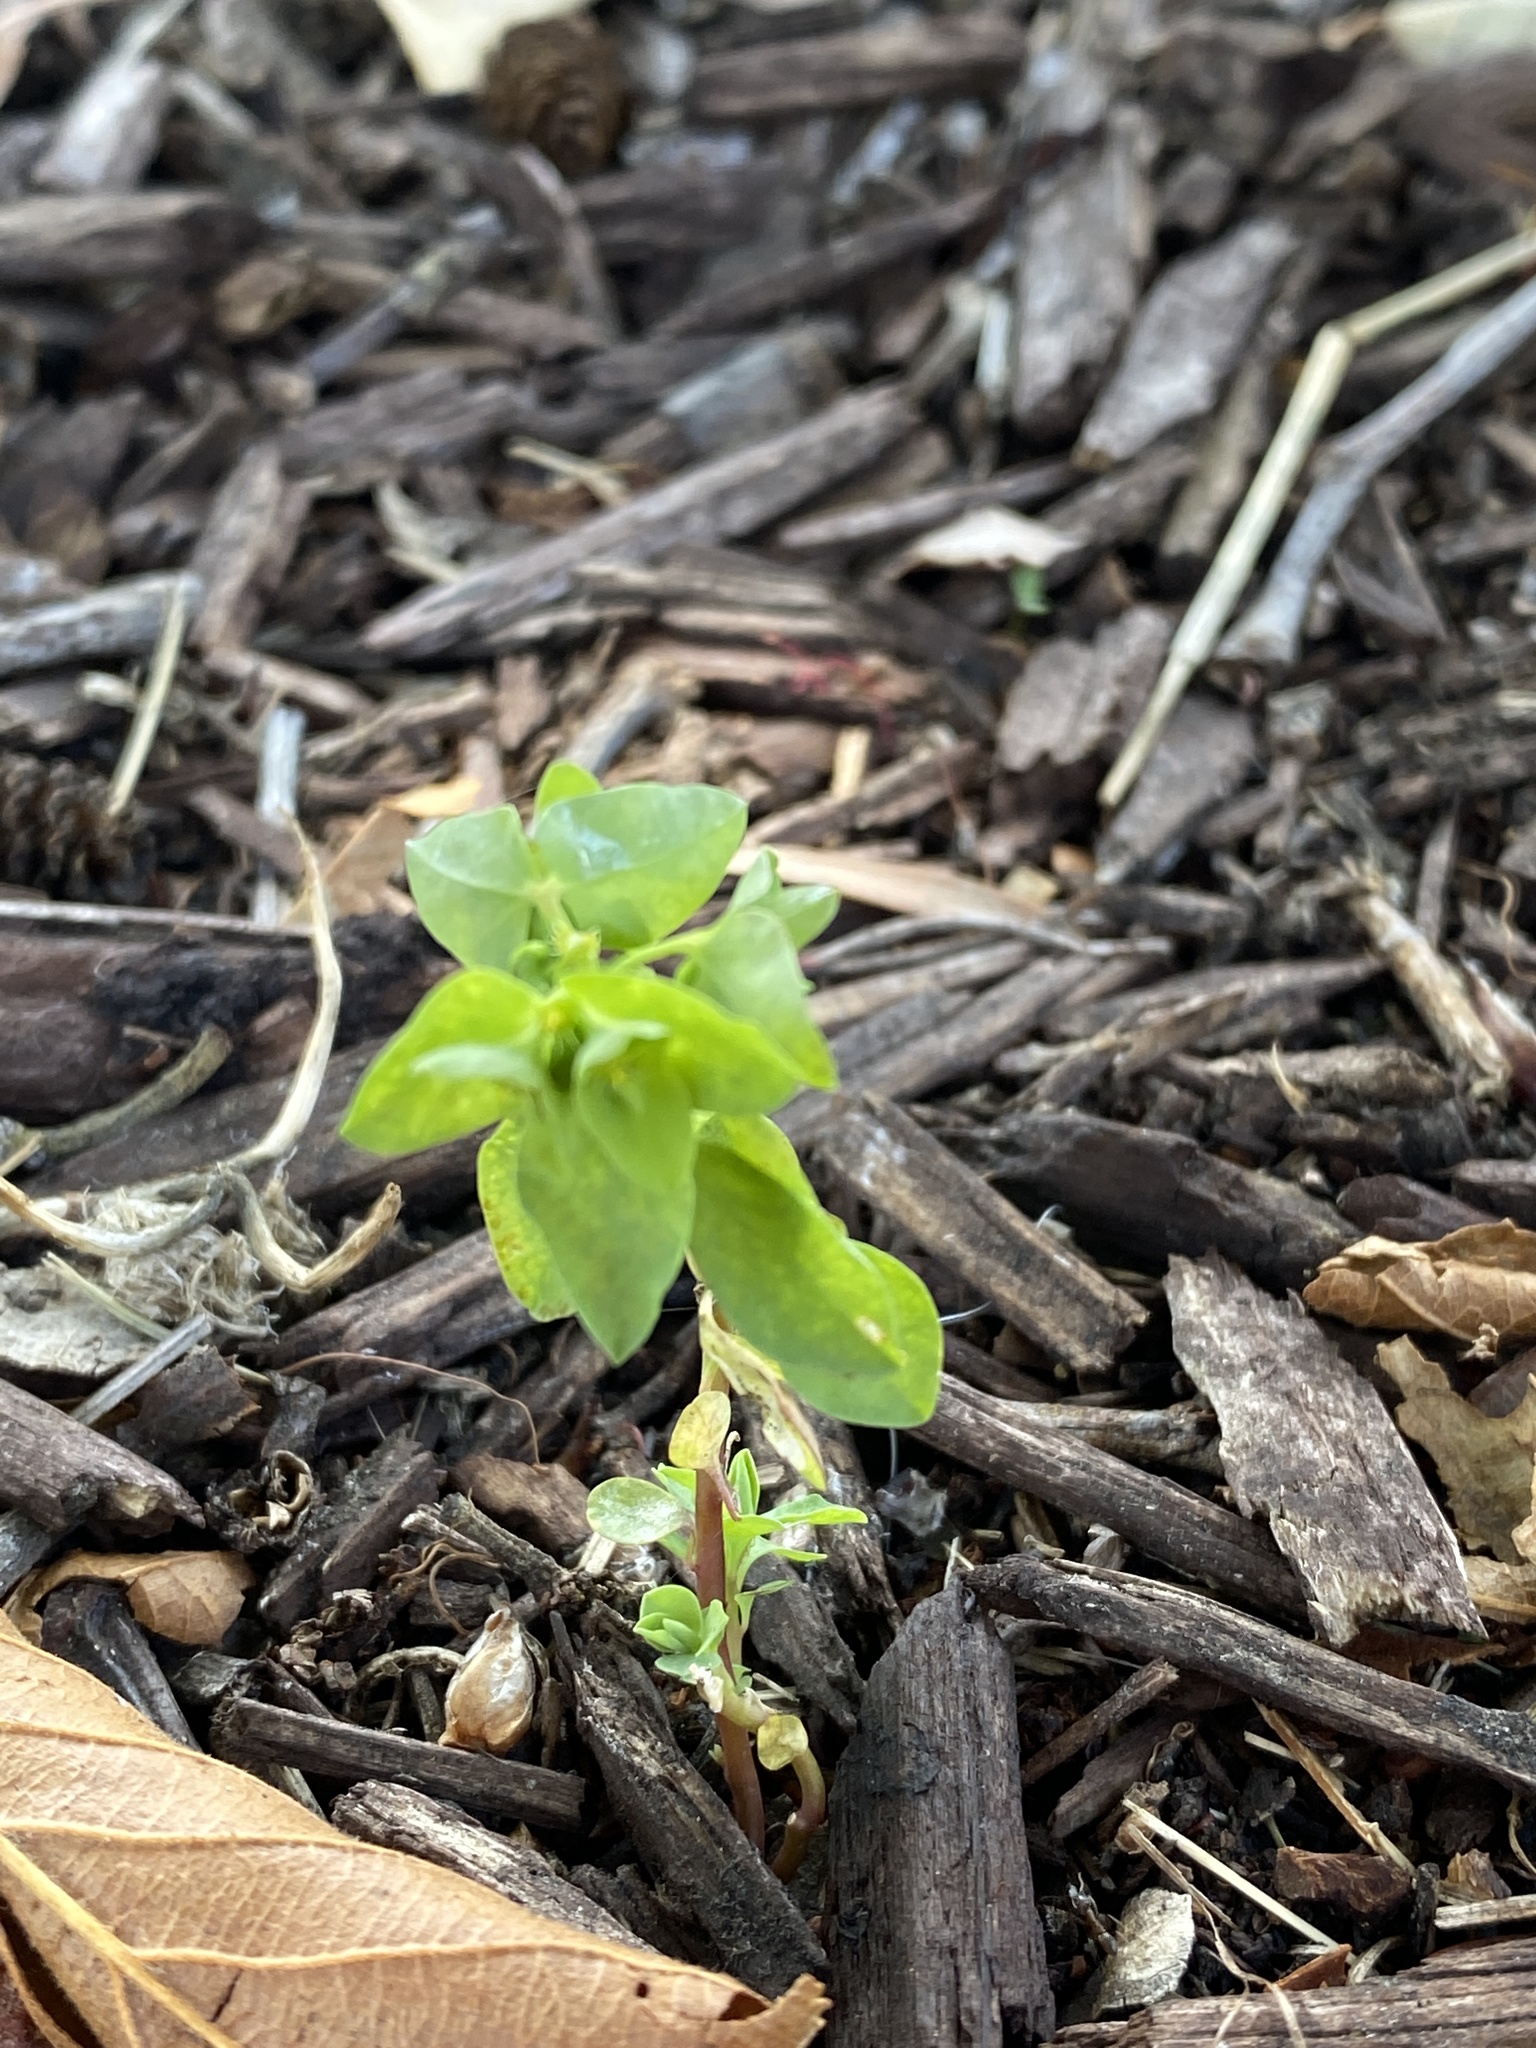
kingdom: Plantae
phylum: Tracheophyta
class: Magnoliopsida
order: Malpighiales
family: Euphorbiaceae
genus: Euphorbia
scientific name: Euphorbia peplus
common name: Petty spurge
